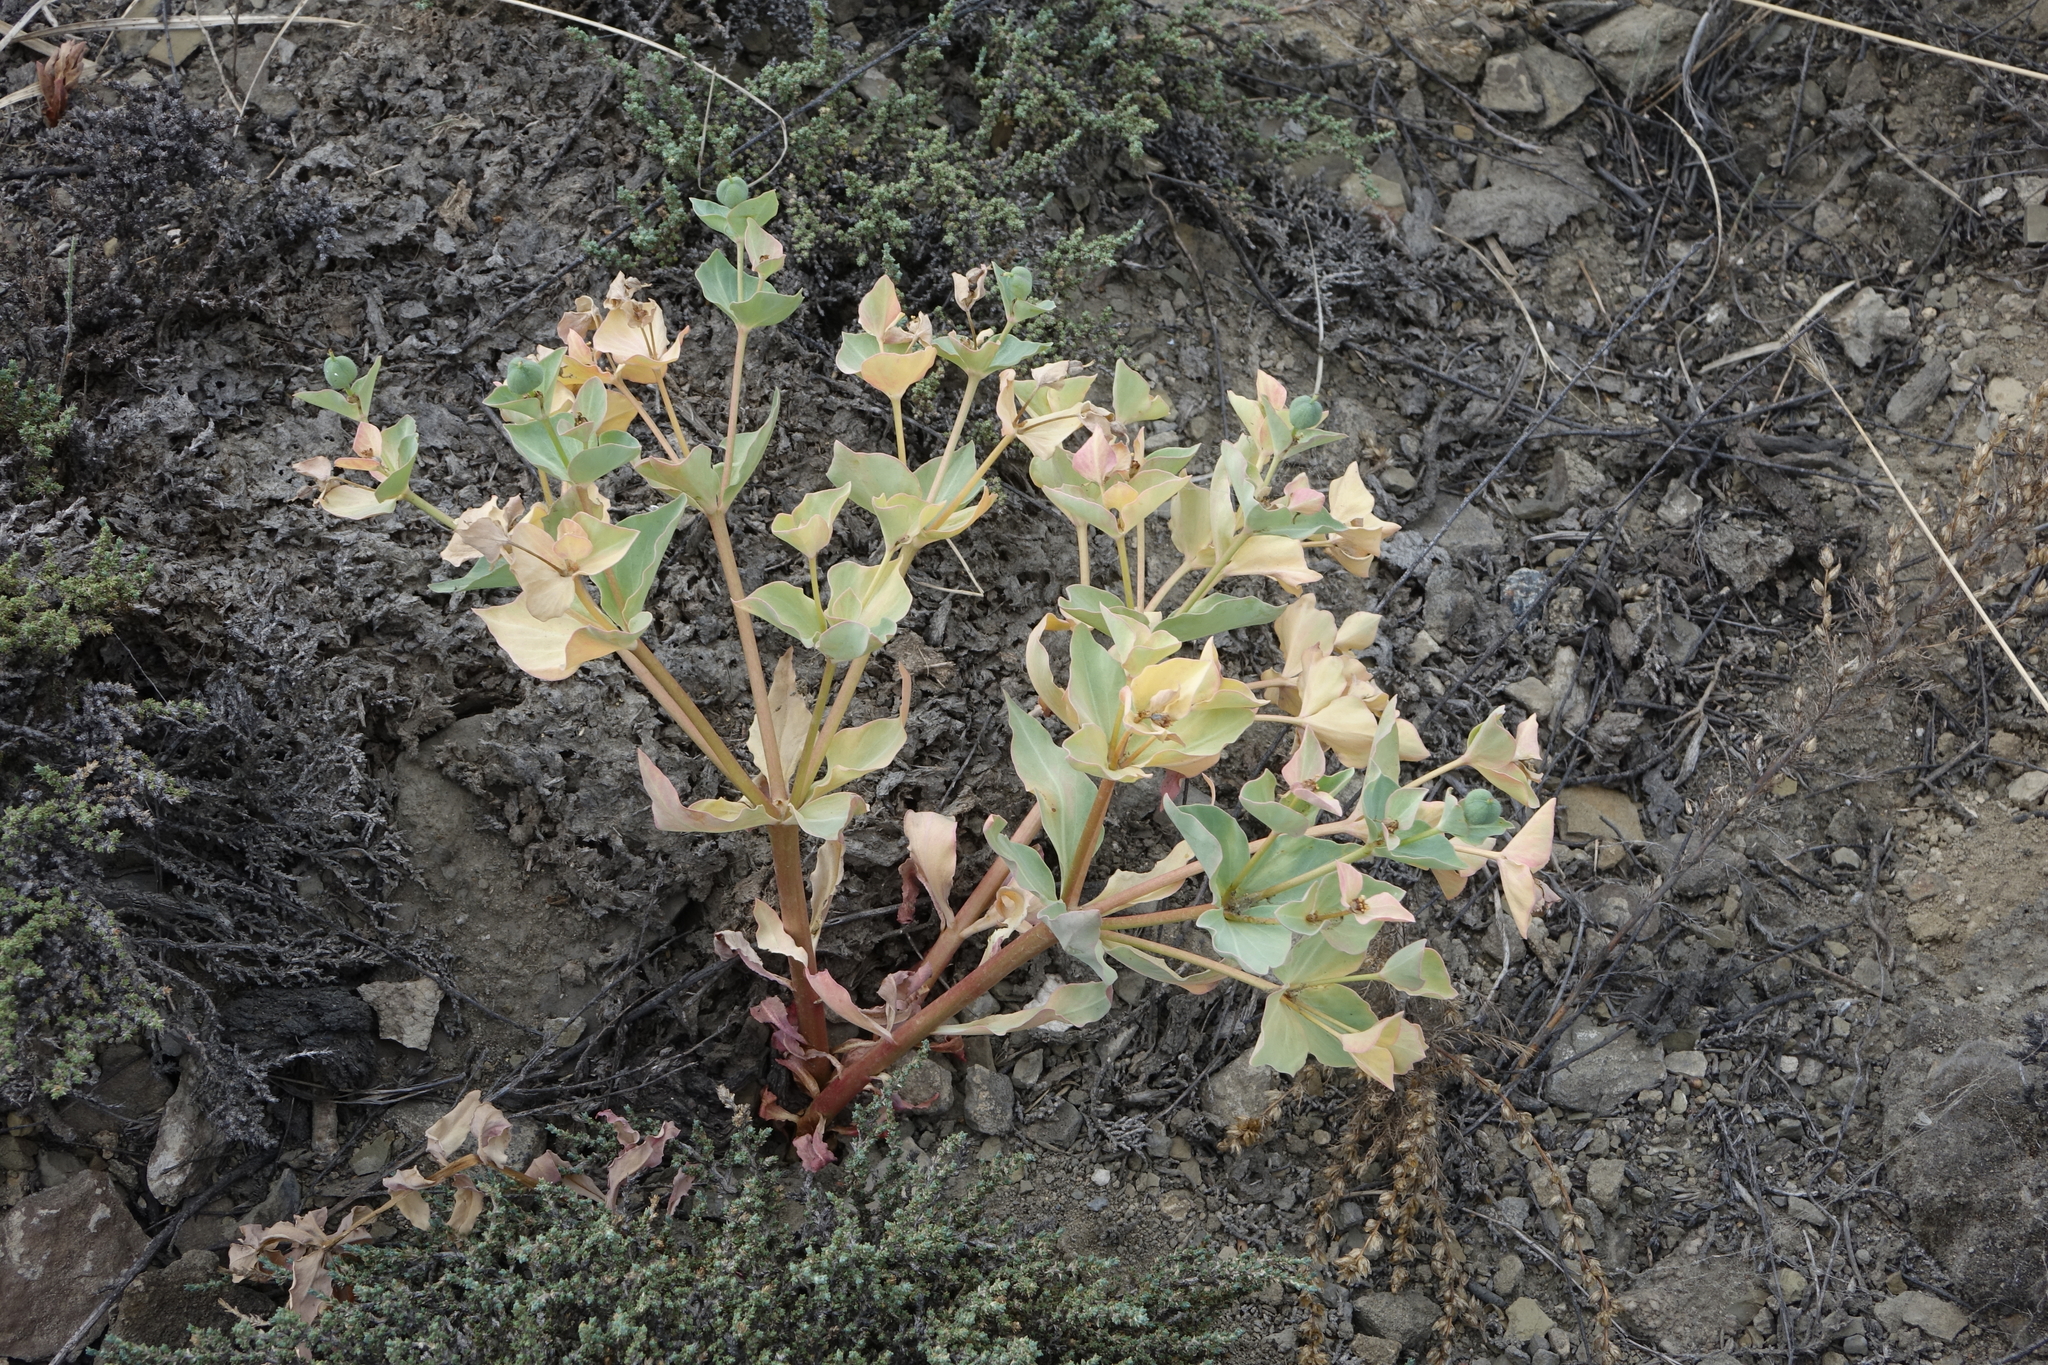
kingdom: Plantae
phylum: Tracheophyta
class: Magnoliopsida
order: Malpighiales
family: Euphorbiaceae
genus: Euphorbia
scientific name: Euphorbia mongolica
